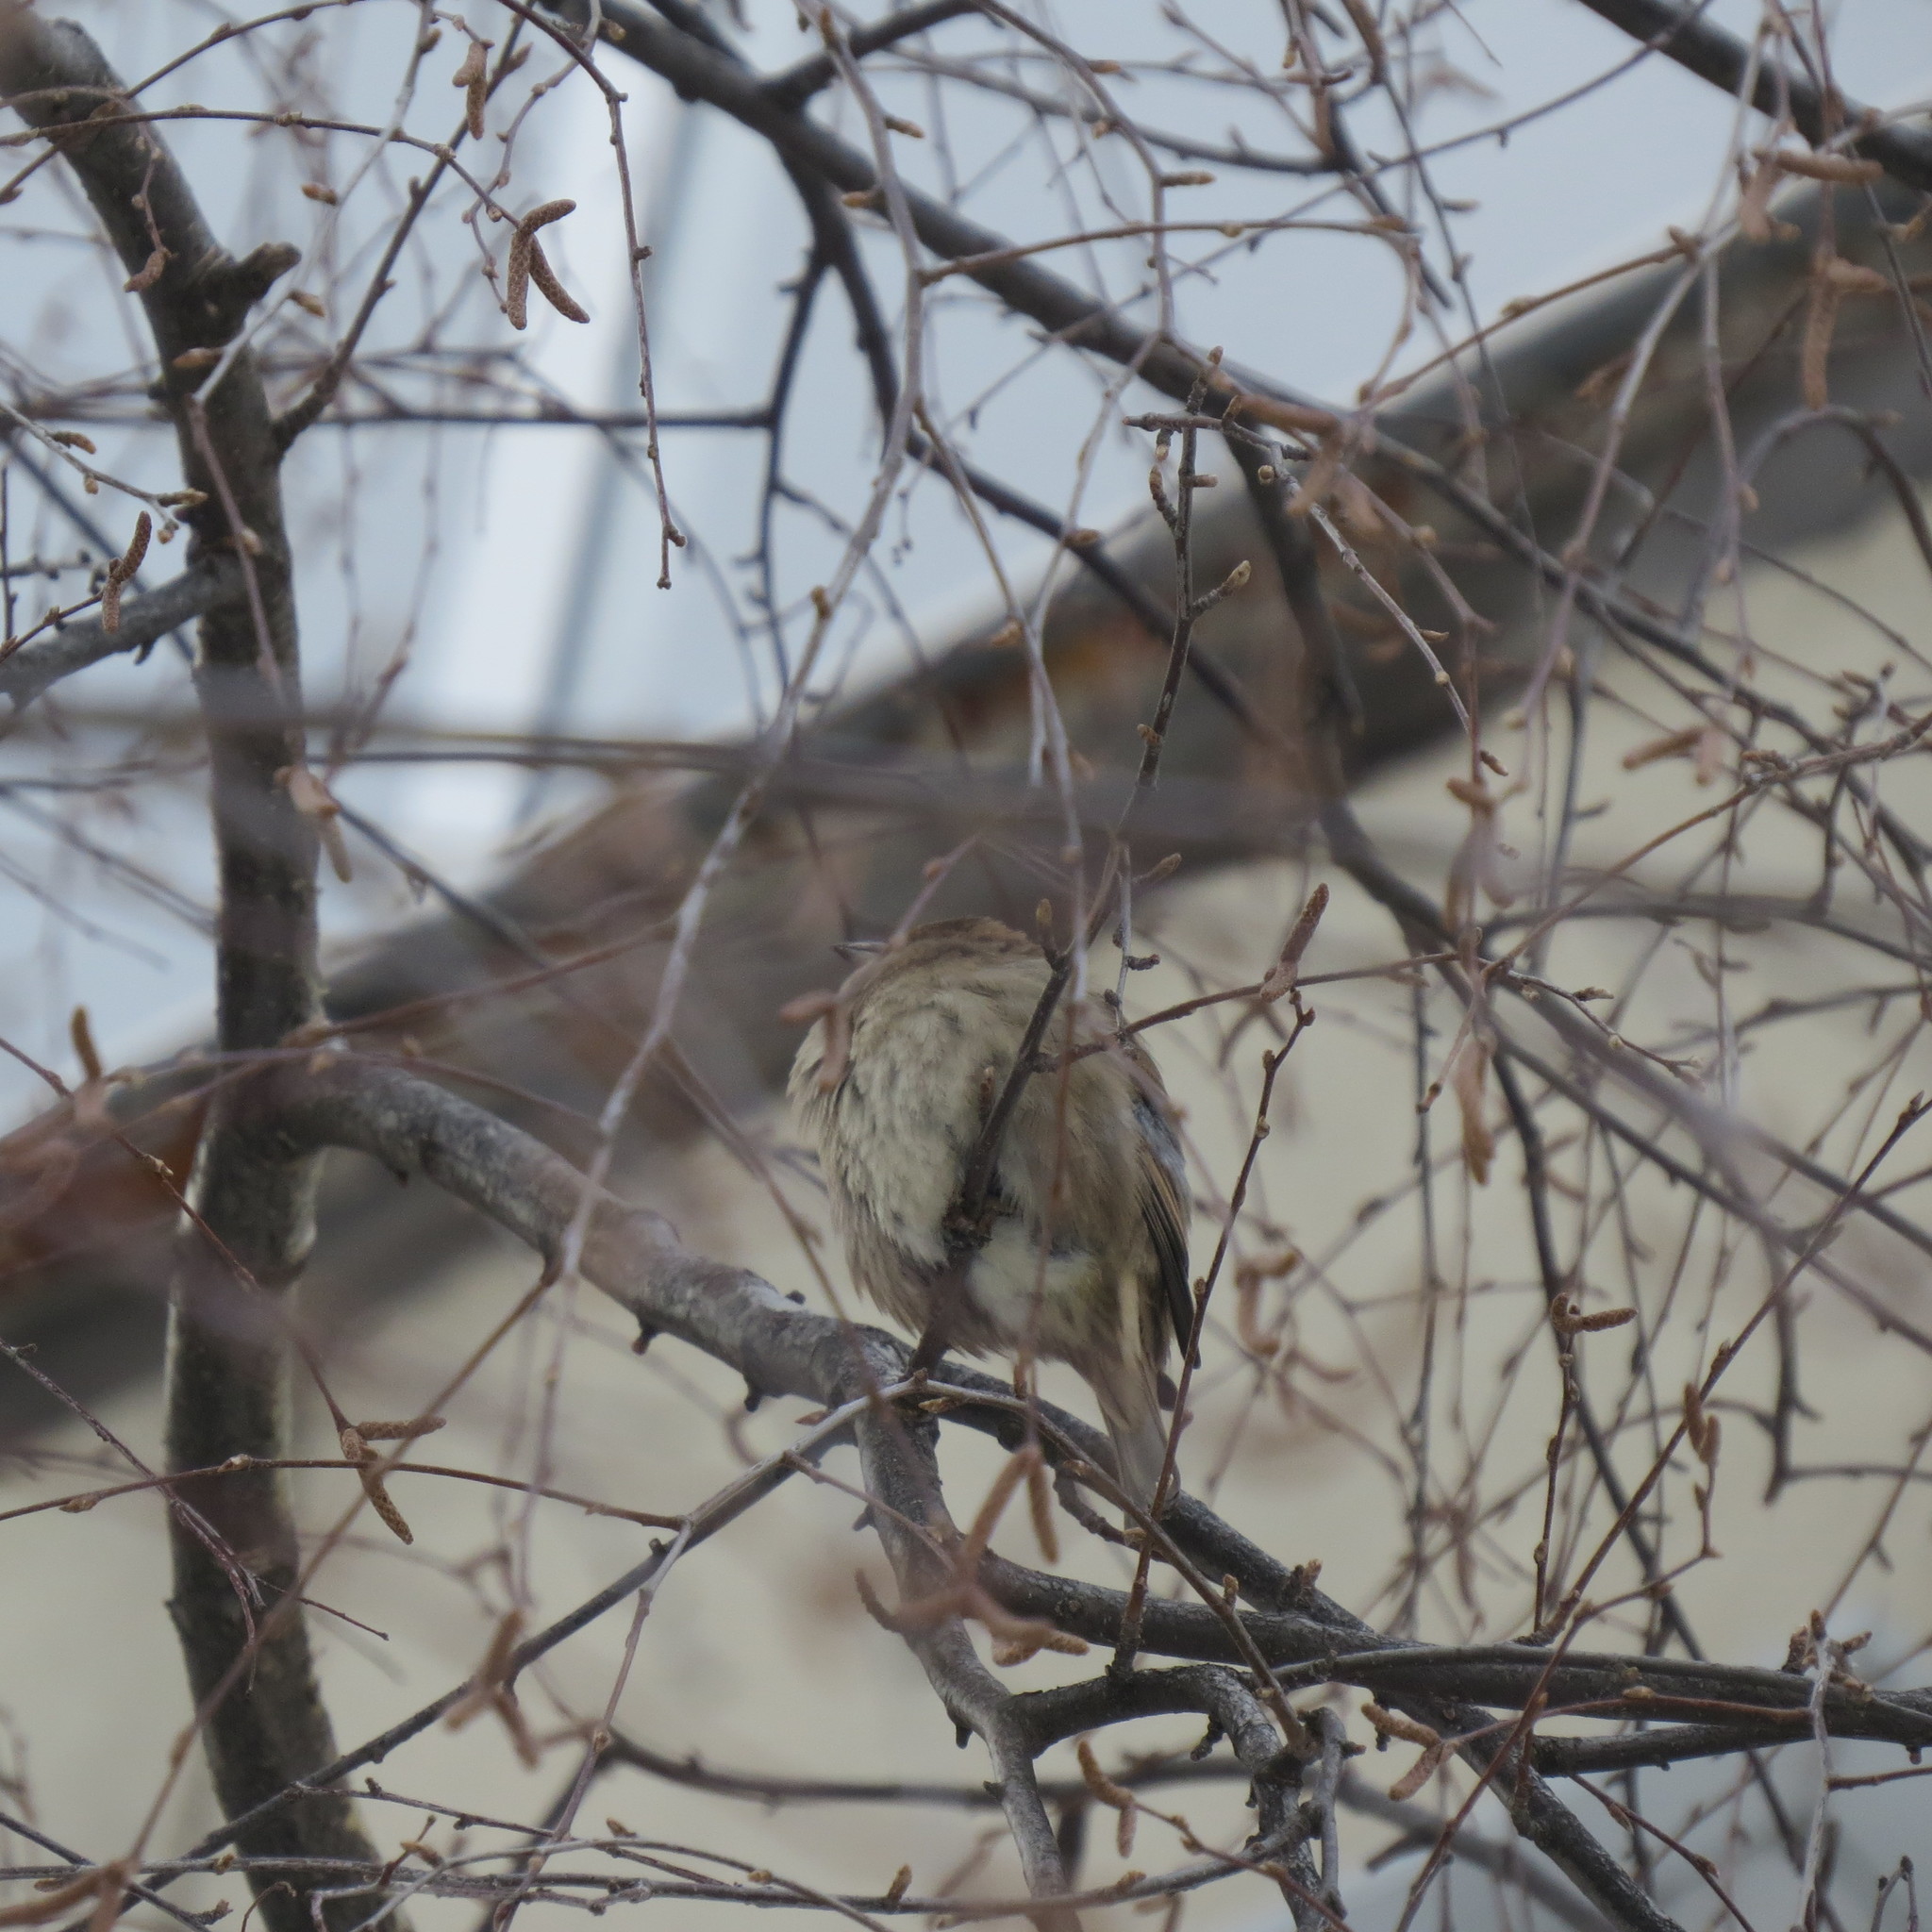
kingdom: Animalia
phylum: Chordata
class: Aves
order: Passeriformes
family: Passeridae
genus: Passer
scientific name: Passer domesticus
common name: House sparrow
